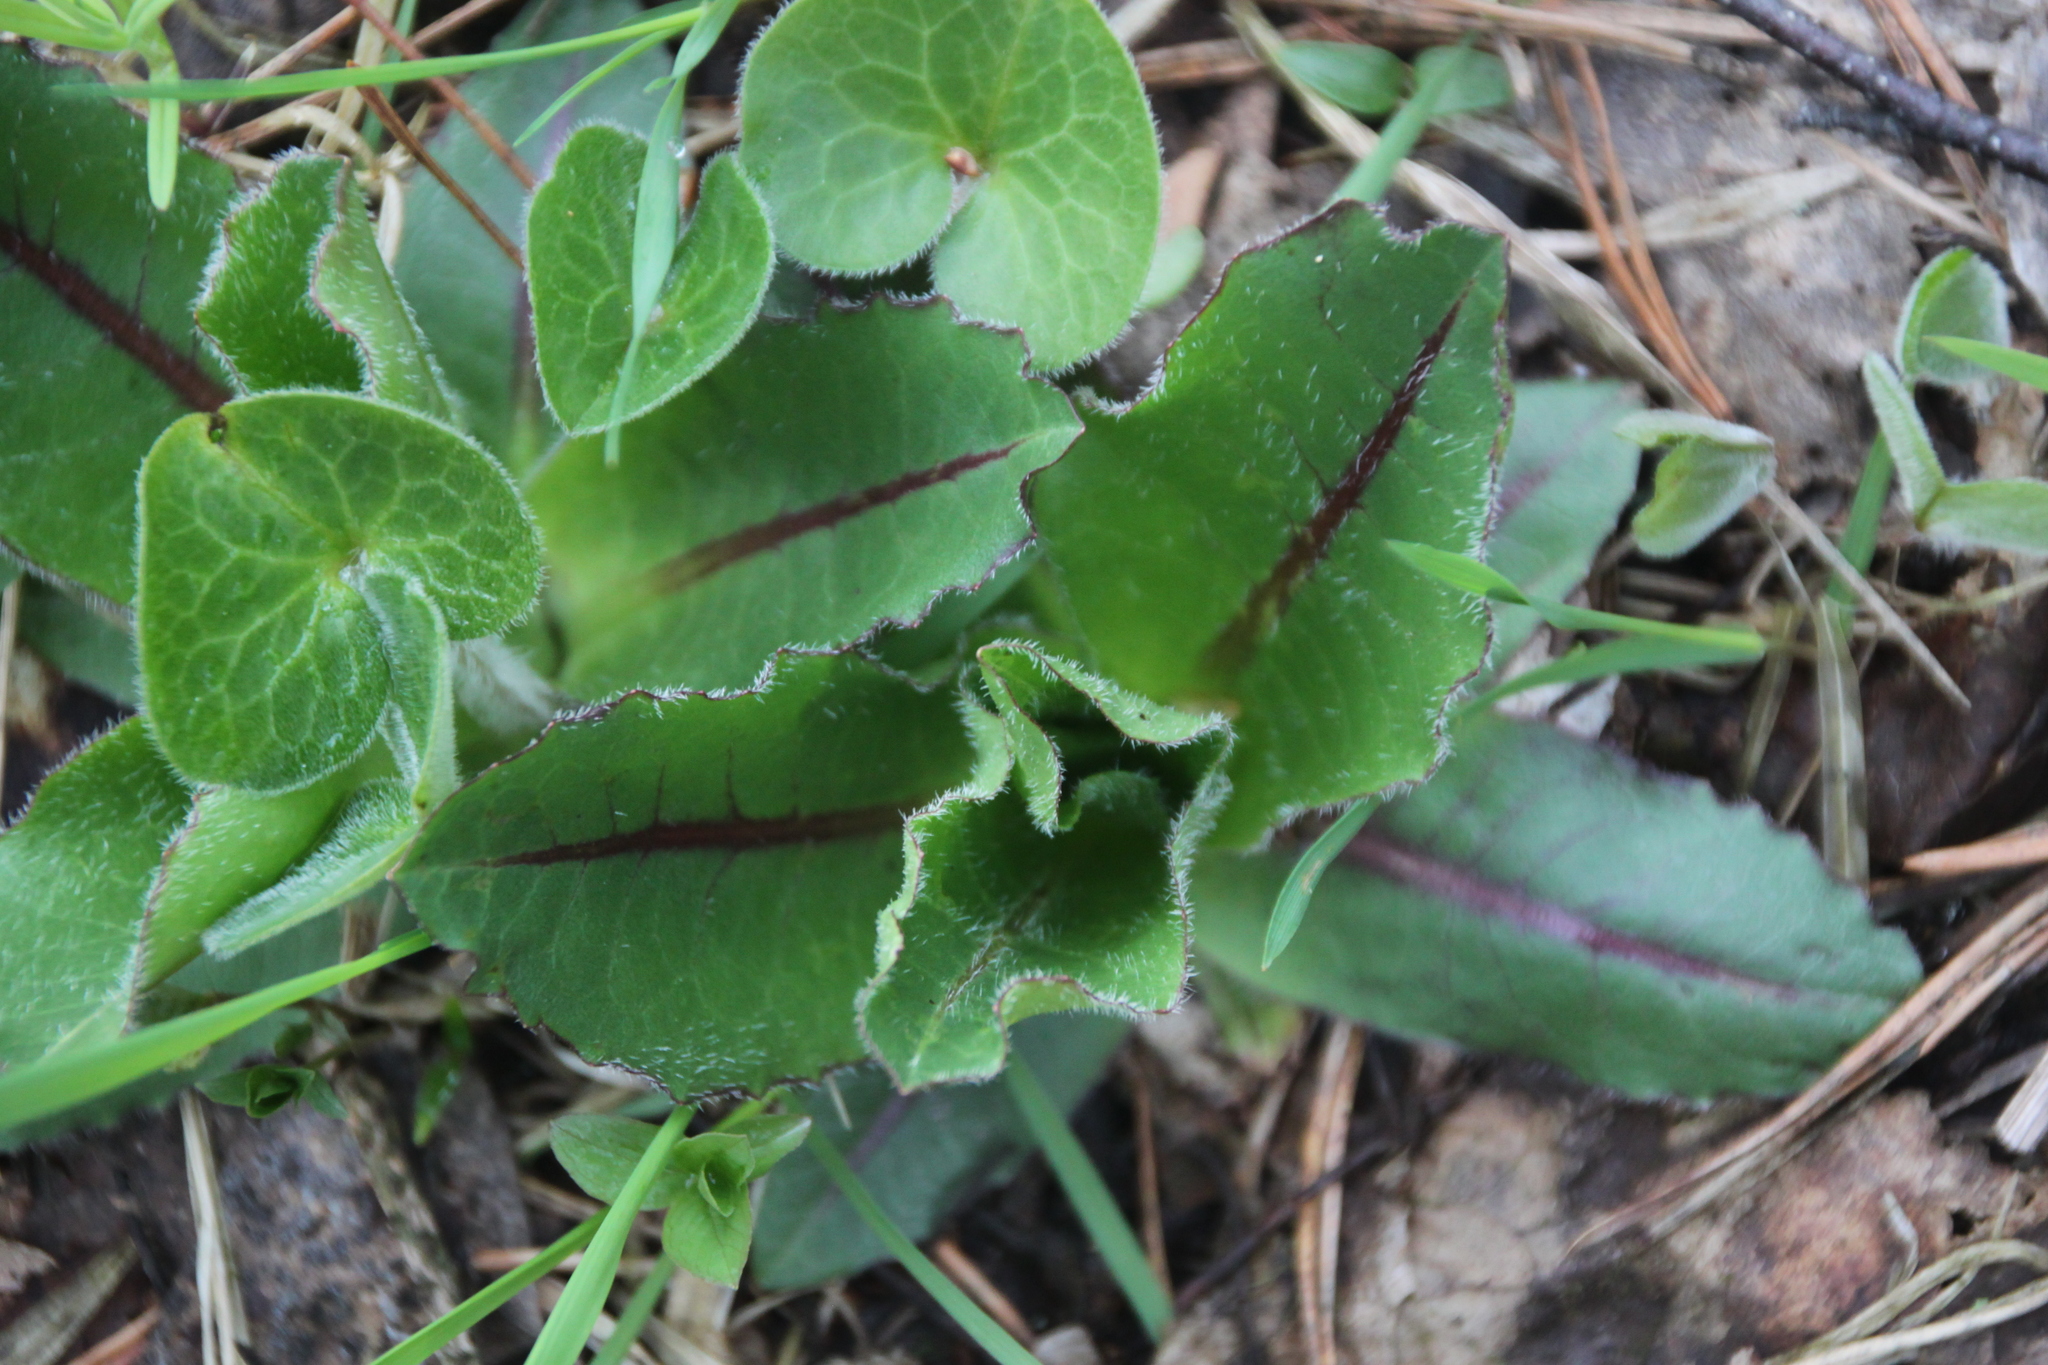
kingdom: Plantae
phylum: Tracheophyta
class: Magnoliopsida
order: Asterales
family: Asteraceae
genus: Trommsdorffia
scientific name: Trommsdorffia maculata
